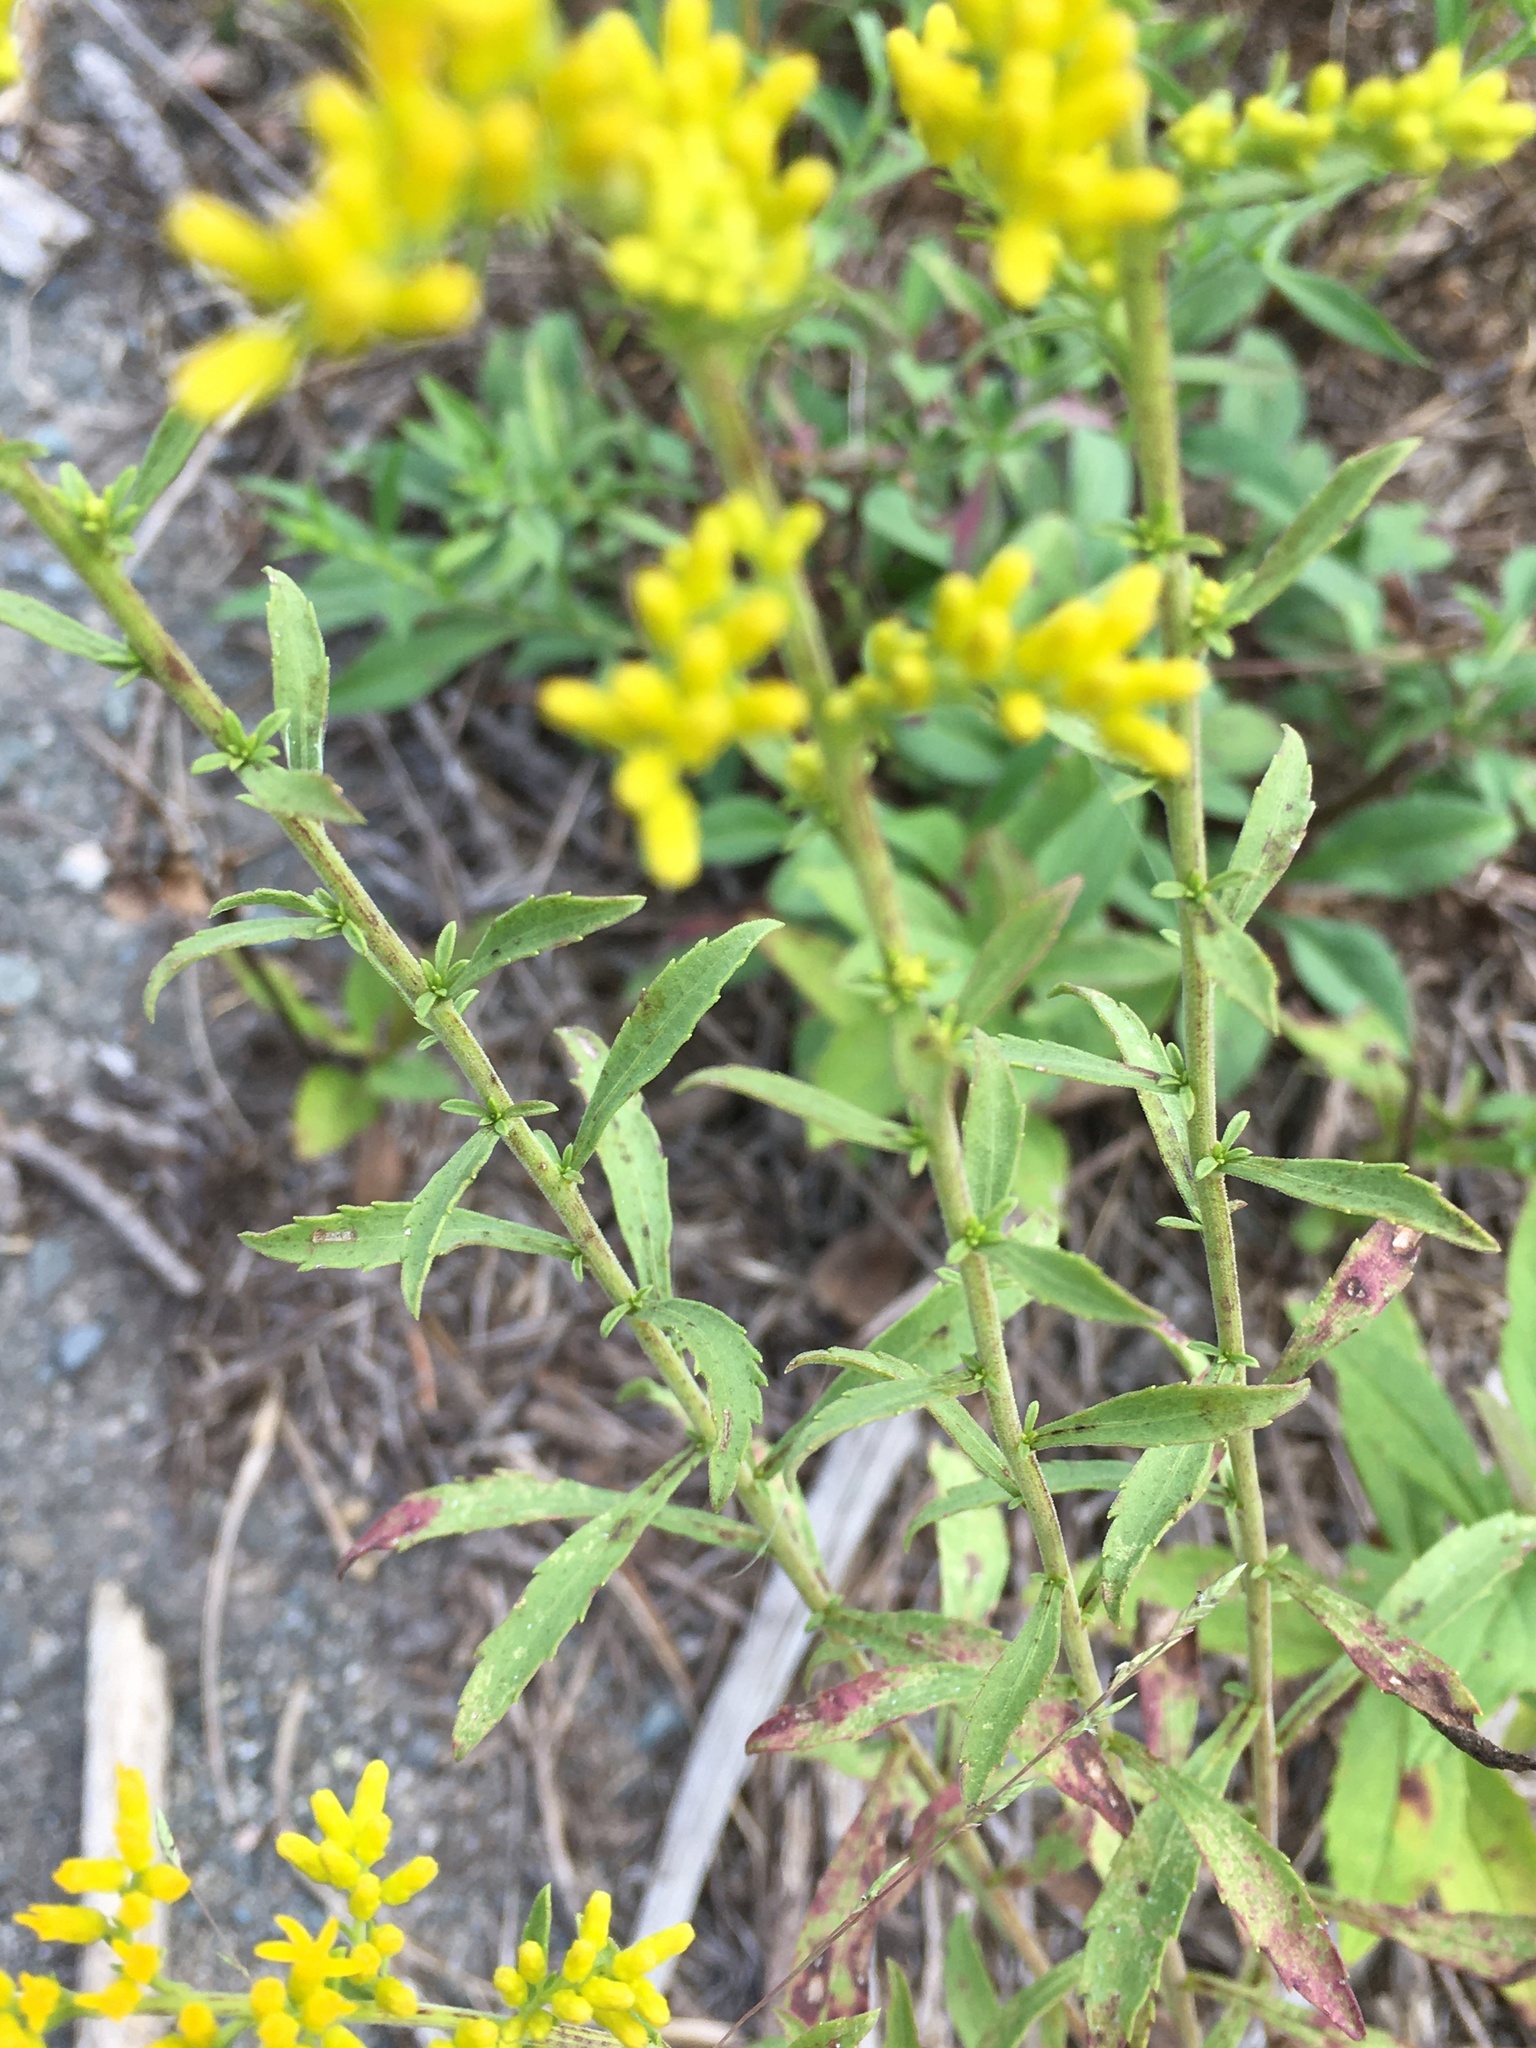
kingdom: Plantae
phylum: Tracheophyta
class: Magnoliopsida
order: Asterales
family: Asteraceae
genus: Solidago
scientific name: Solidago nemoralis
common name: Grey goldenrod
